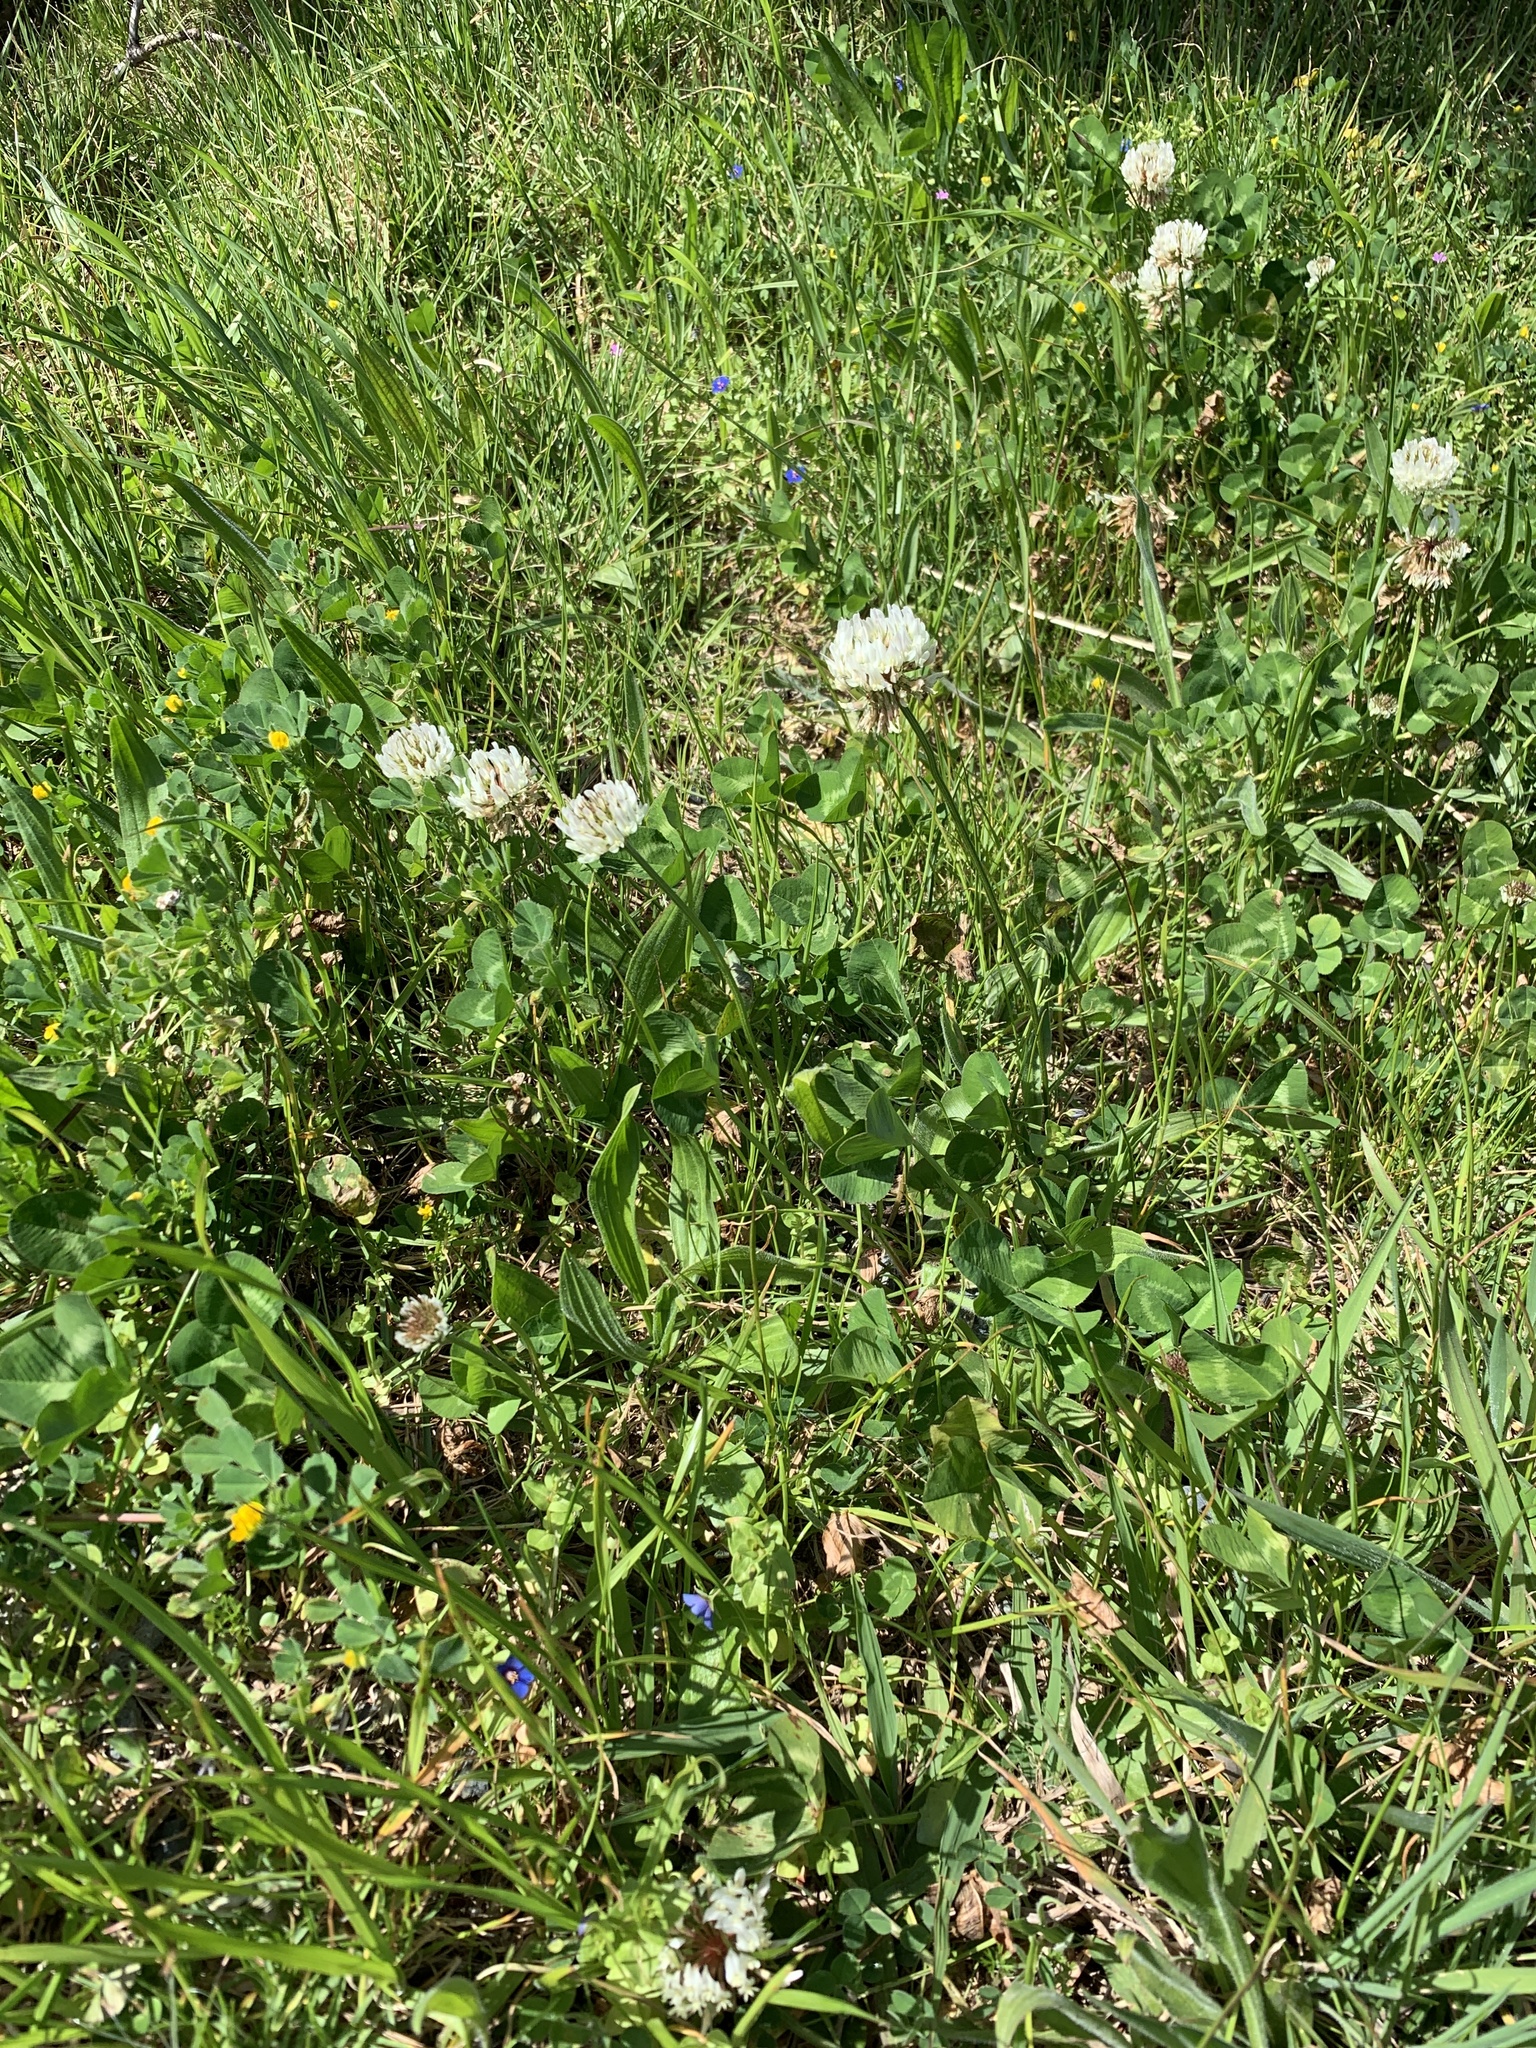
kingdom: Plantae
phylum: Tracheophyta
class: Magnoliopsida
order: Fabales
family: Fabaceae
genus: Trifolium
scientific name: Trifolium repens
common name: White clover
